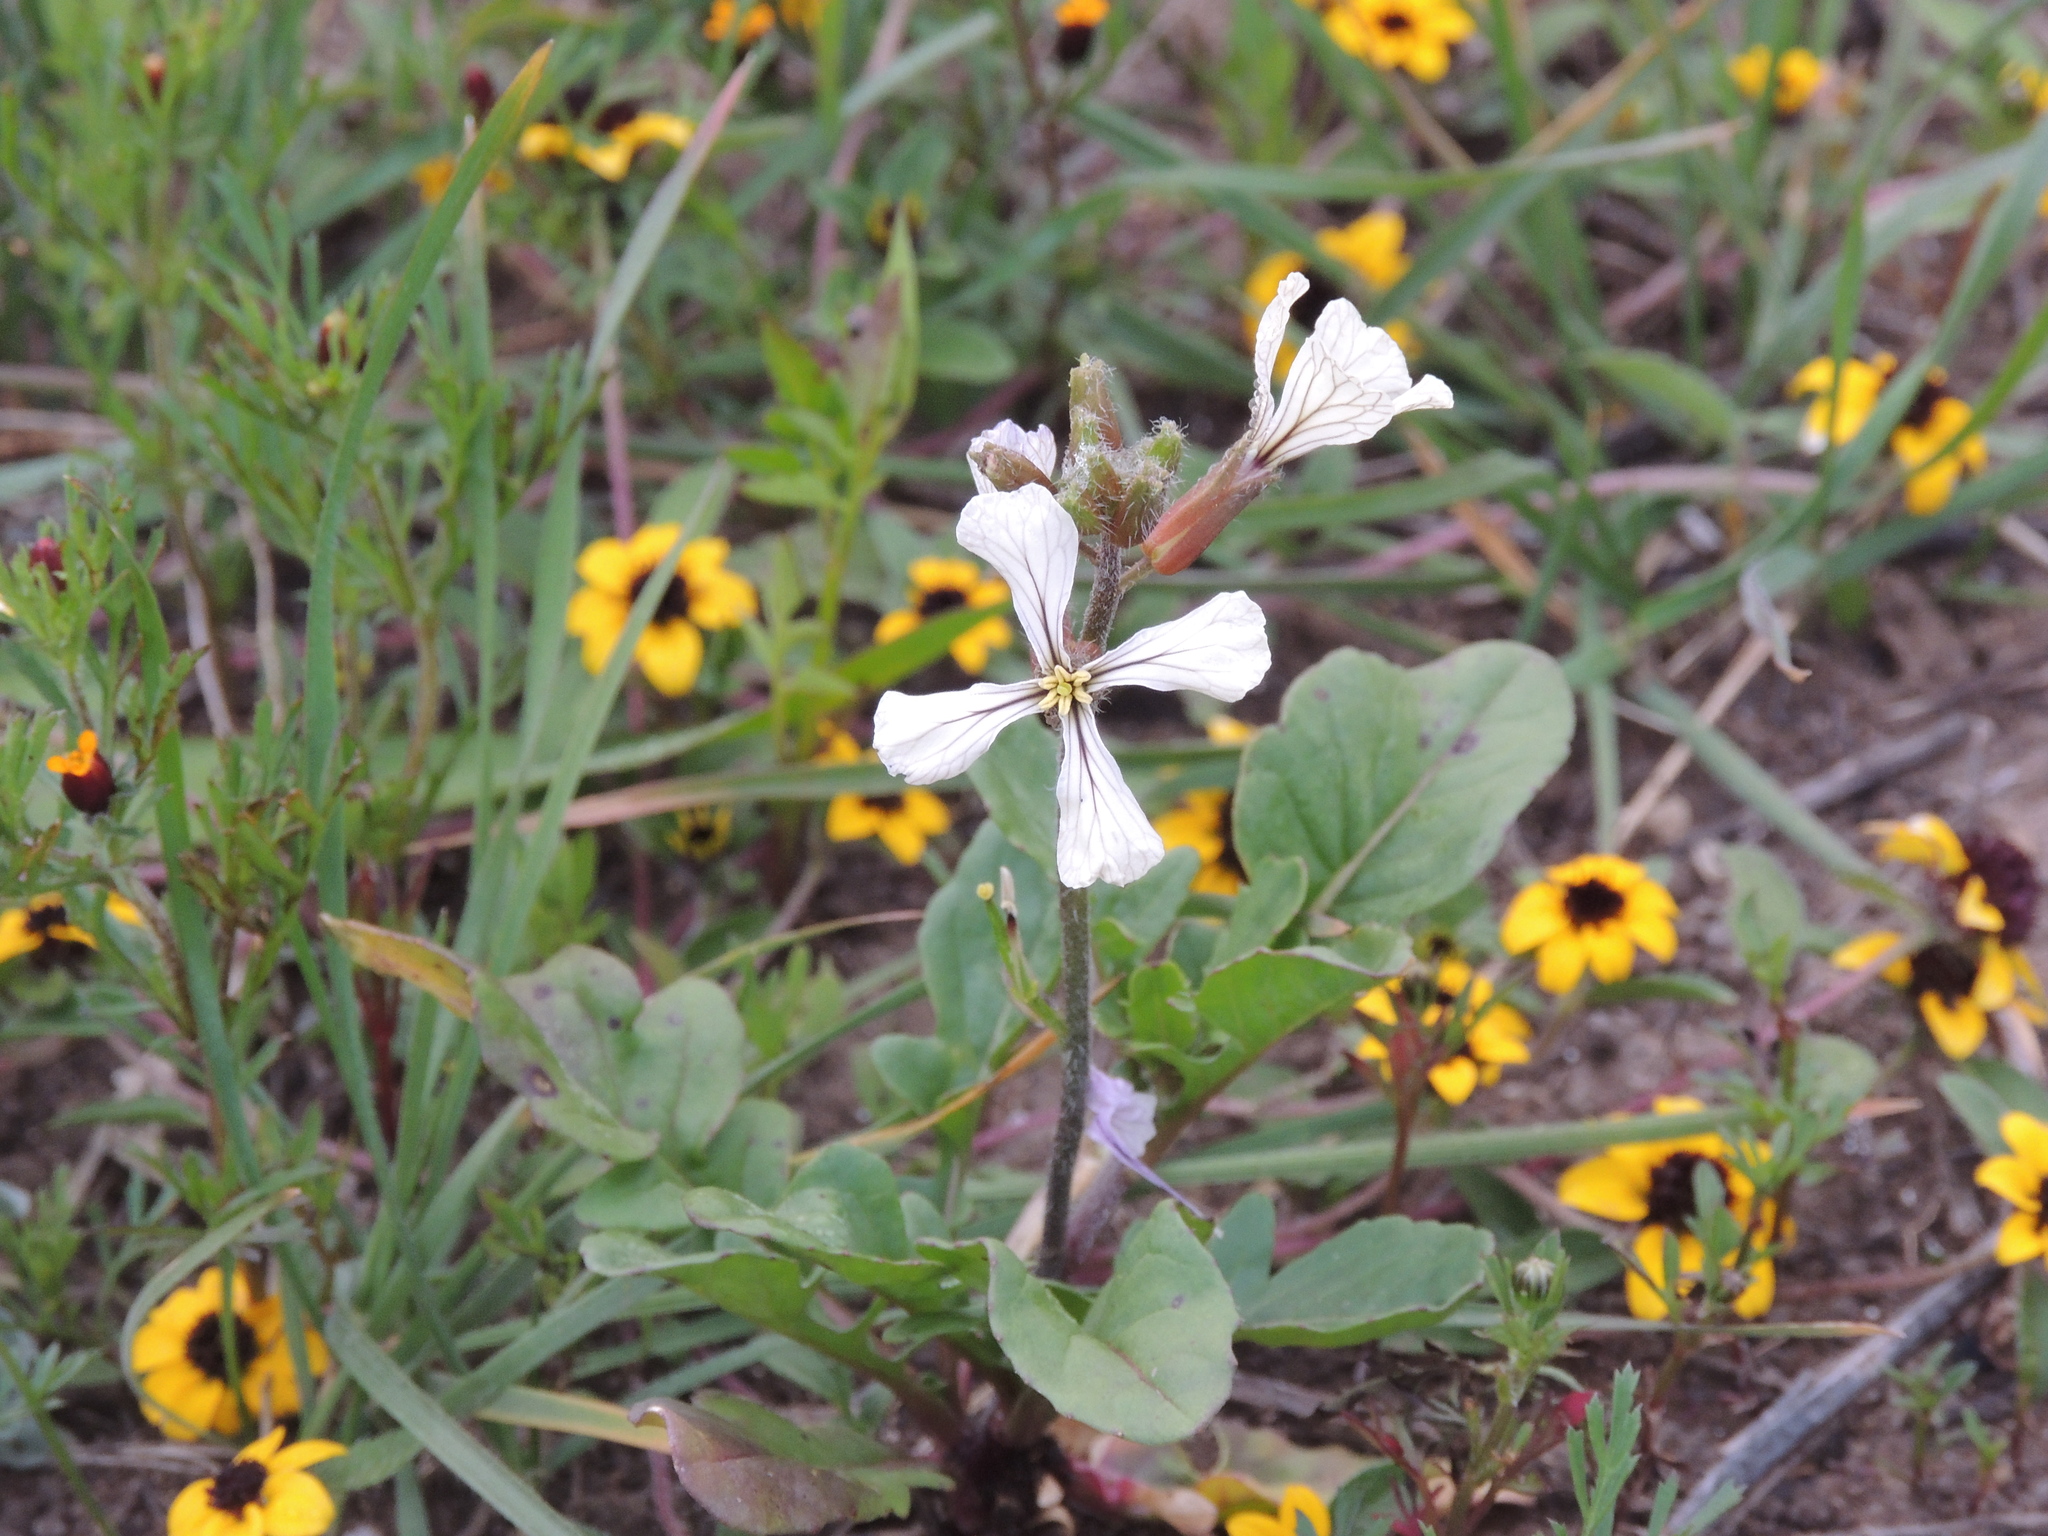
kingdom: Plantae
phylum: Tracheophyta
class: Magnoliopsida
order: Brassicales
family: Brassicaceae
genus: Eruca
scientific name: Eruca vesicaria
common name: Garden rocket
